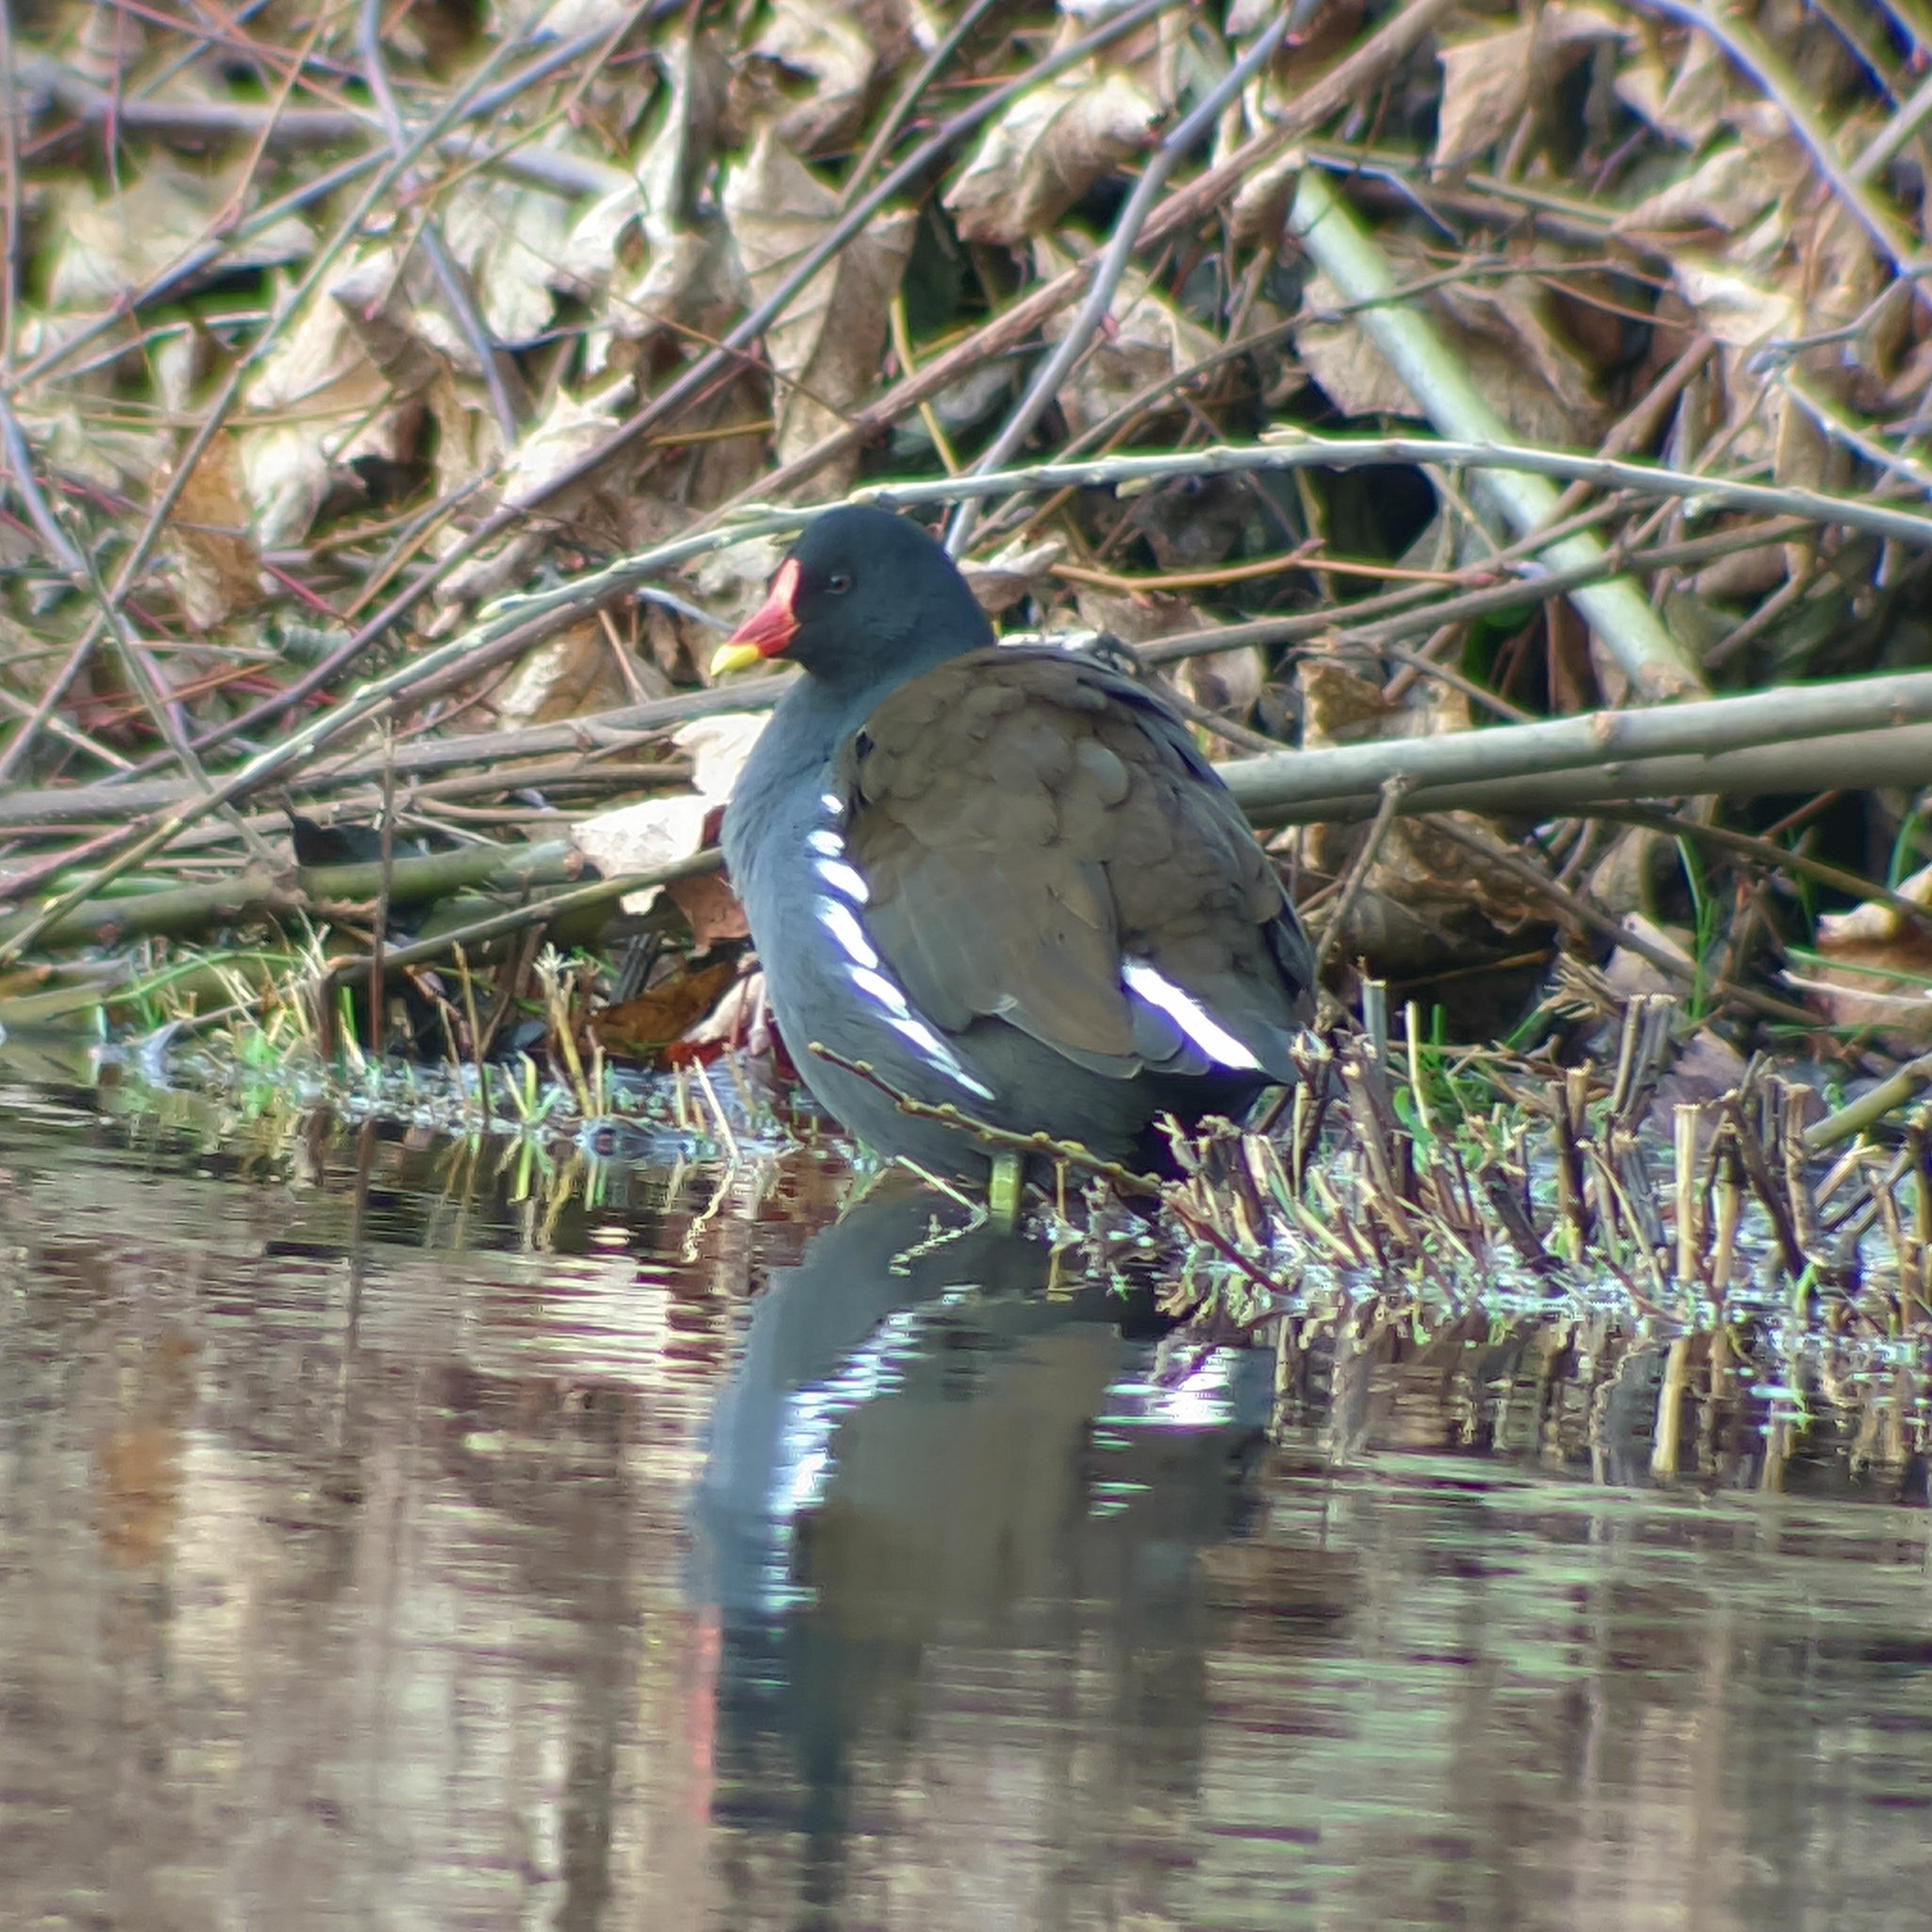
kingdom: Animalia
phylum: Chordata
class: Aves
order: Gruiformes
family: Rallidae
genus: Gallinula
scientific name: Gallinula chloropus
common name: Common moorhen
